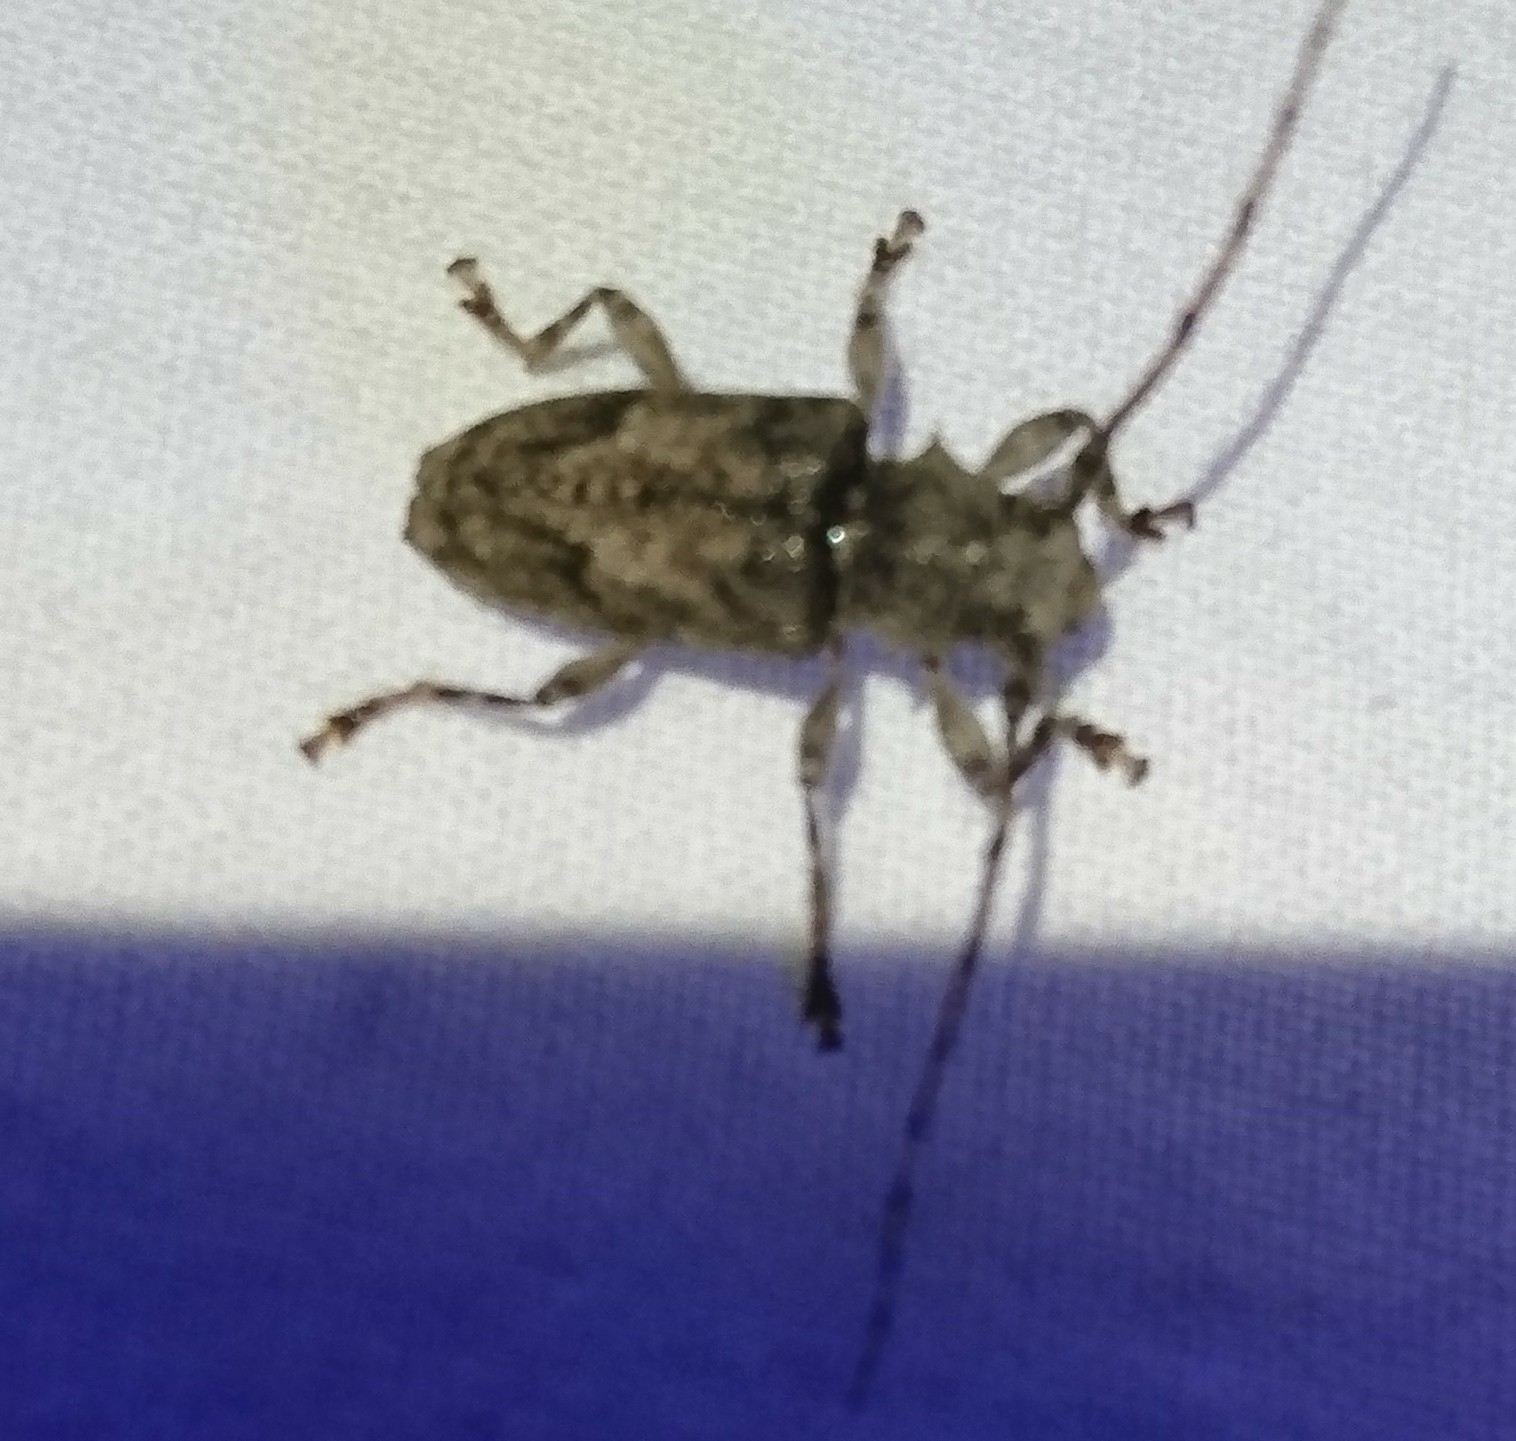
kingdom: Animalia
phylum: Arthropoda
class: Insecta
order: Coleoptera
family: Cerambycidae
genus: Aegomorphus
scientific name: Aegomorphus modestus
